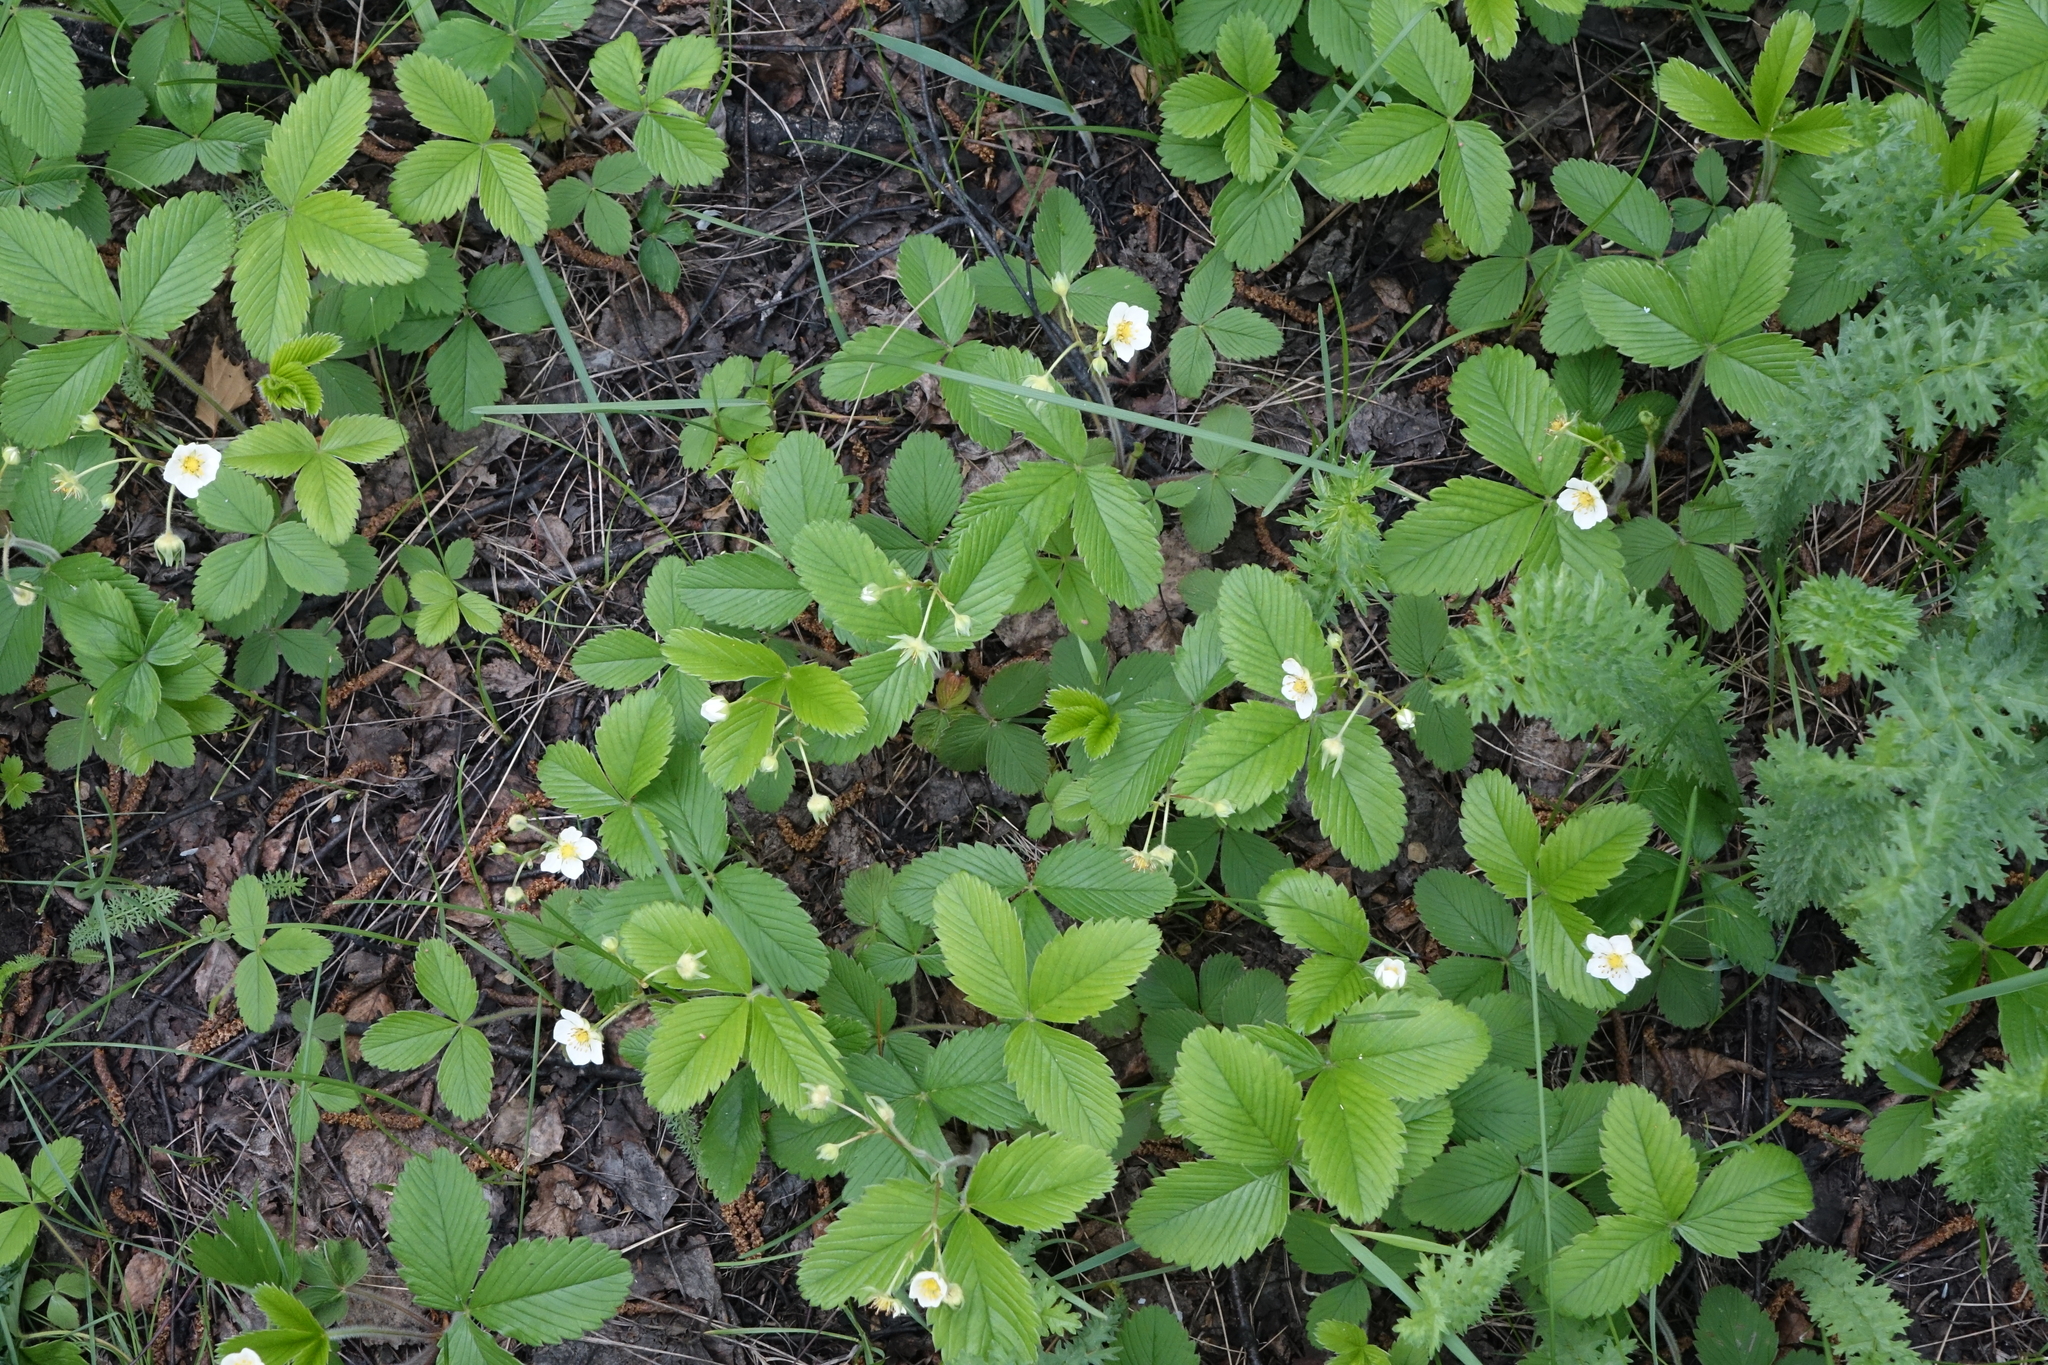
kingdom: Plantae
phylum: Tracheophyta
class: Magnoliopsida
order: Rosales
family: Rosaceae
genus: Fragaria
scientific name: Fragaria viridis
